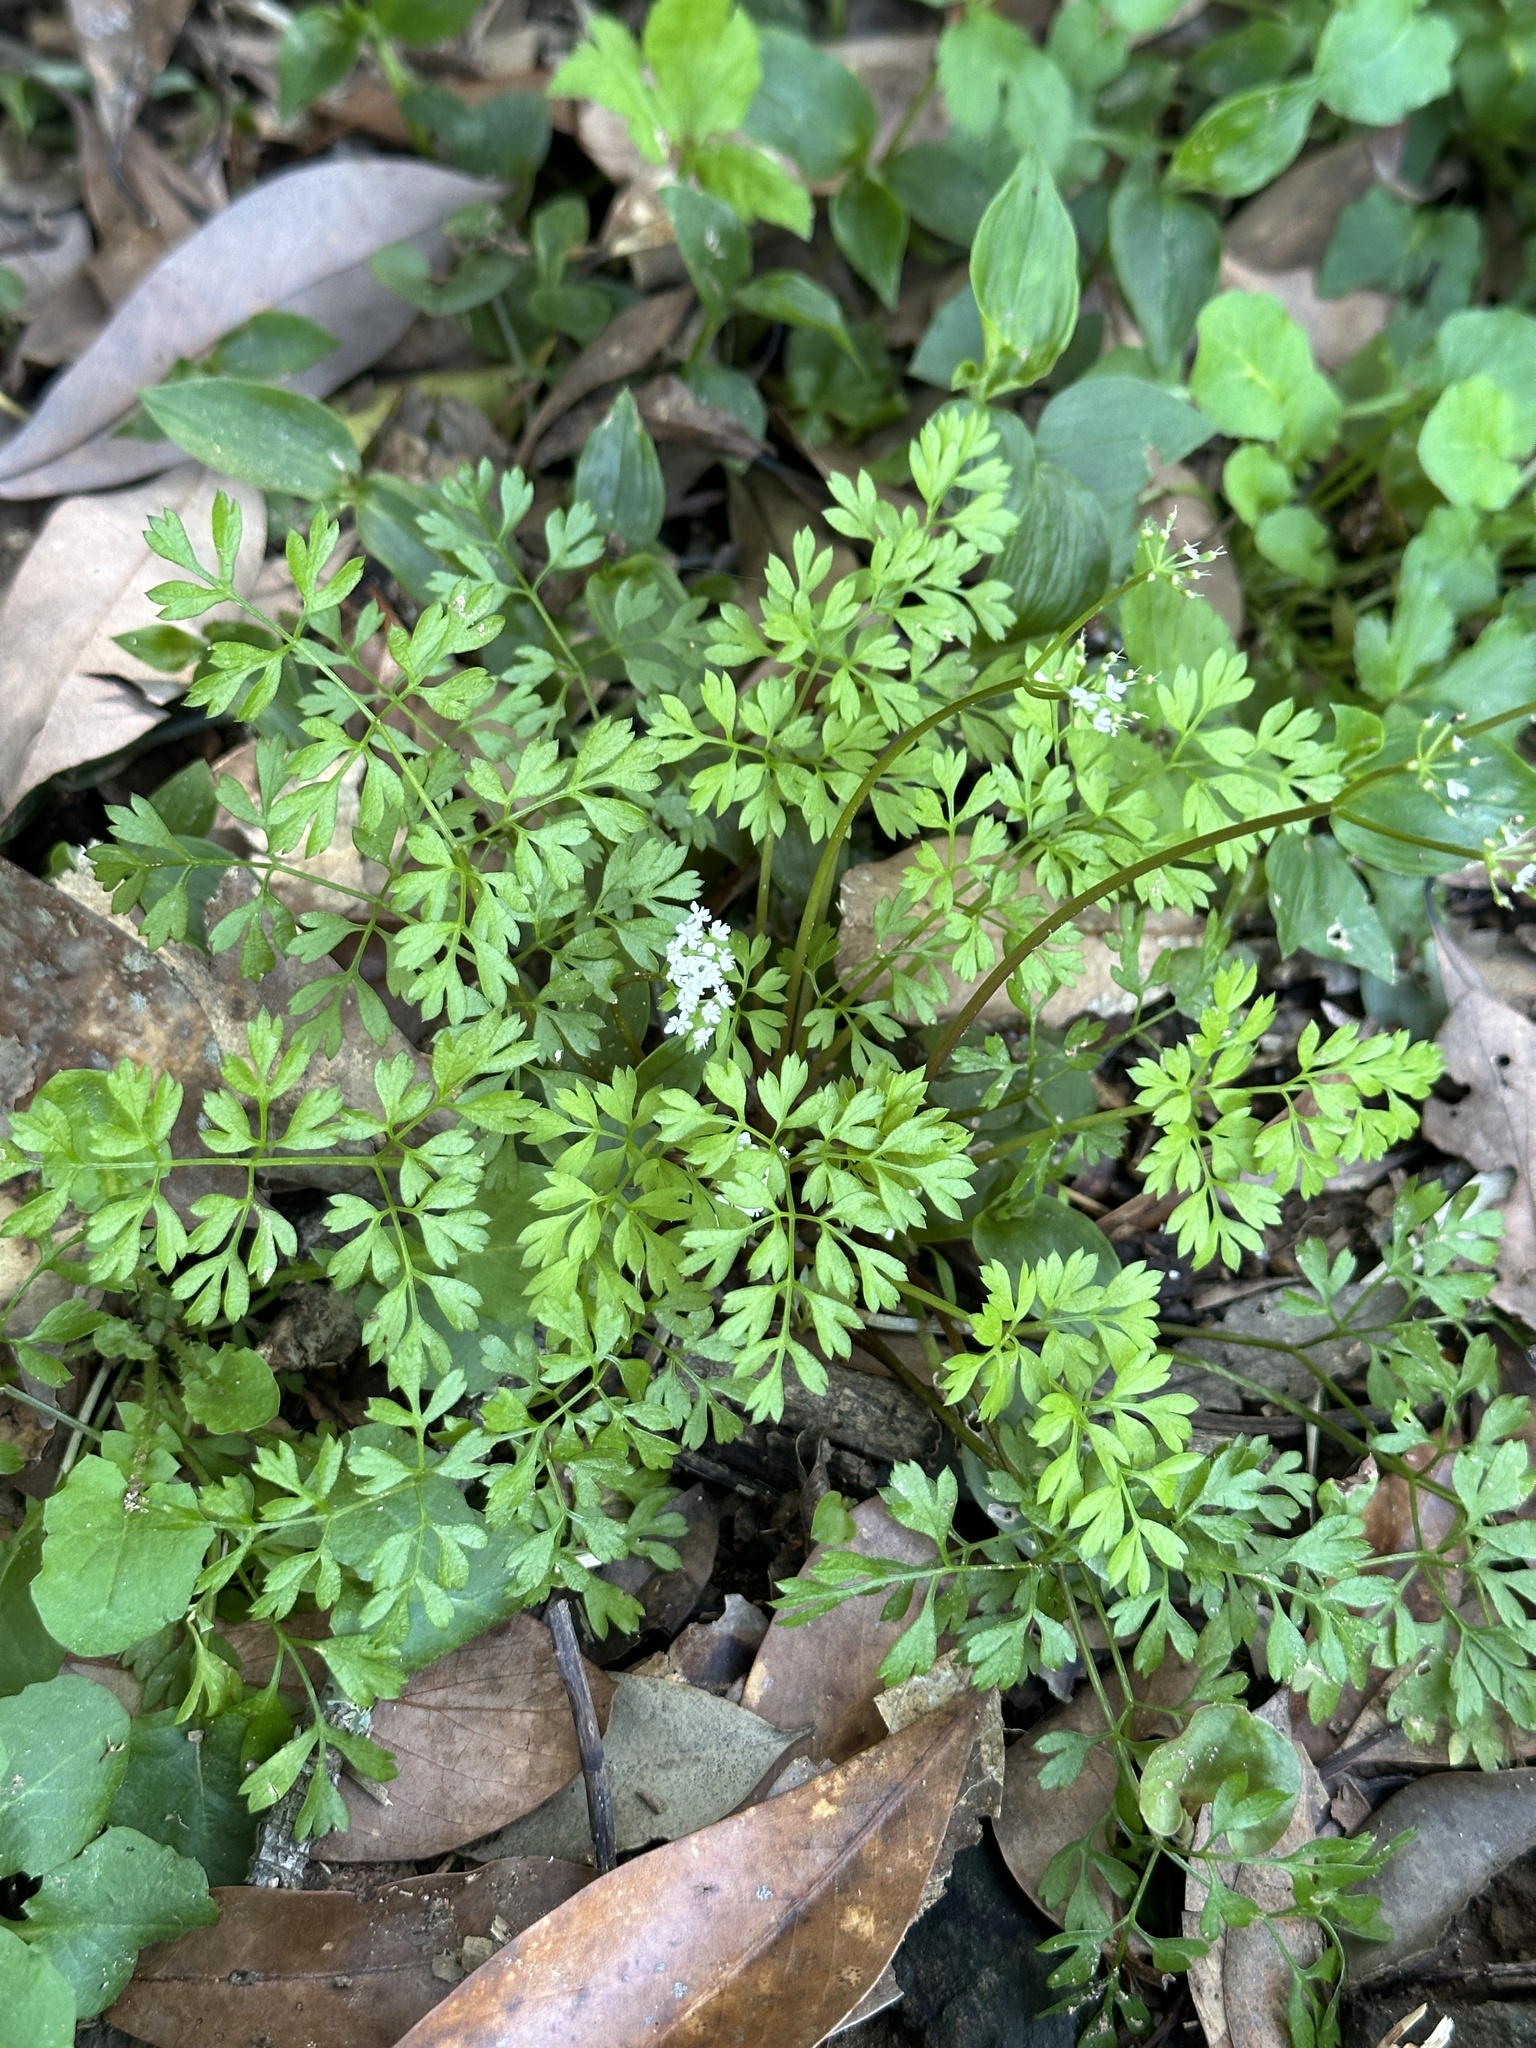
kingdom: Plantae
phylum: Tracheophyta
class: Magnoliopsida
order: Apiales
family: Apiaceae
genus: Aegopodium
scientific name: Aegopodium decumbens
